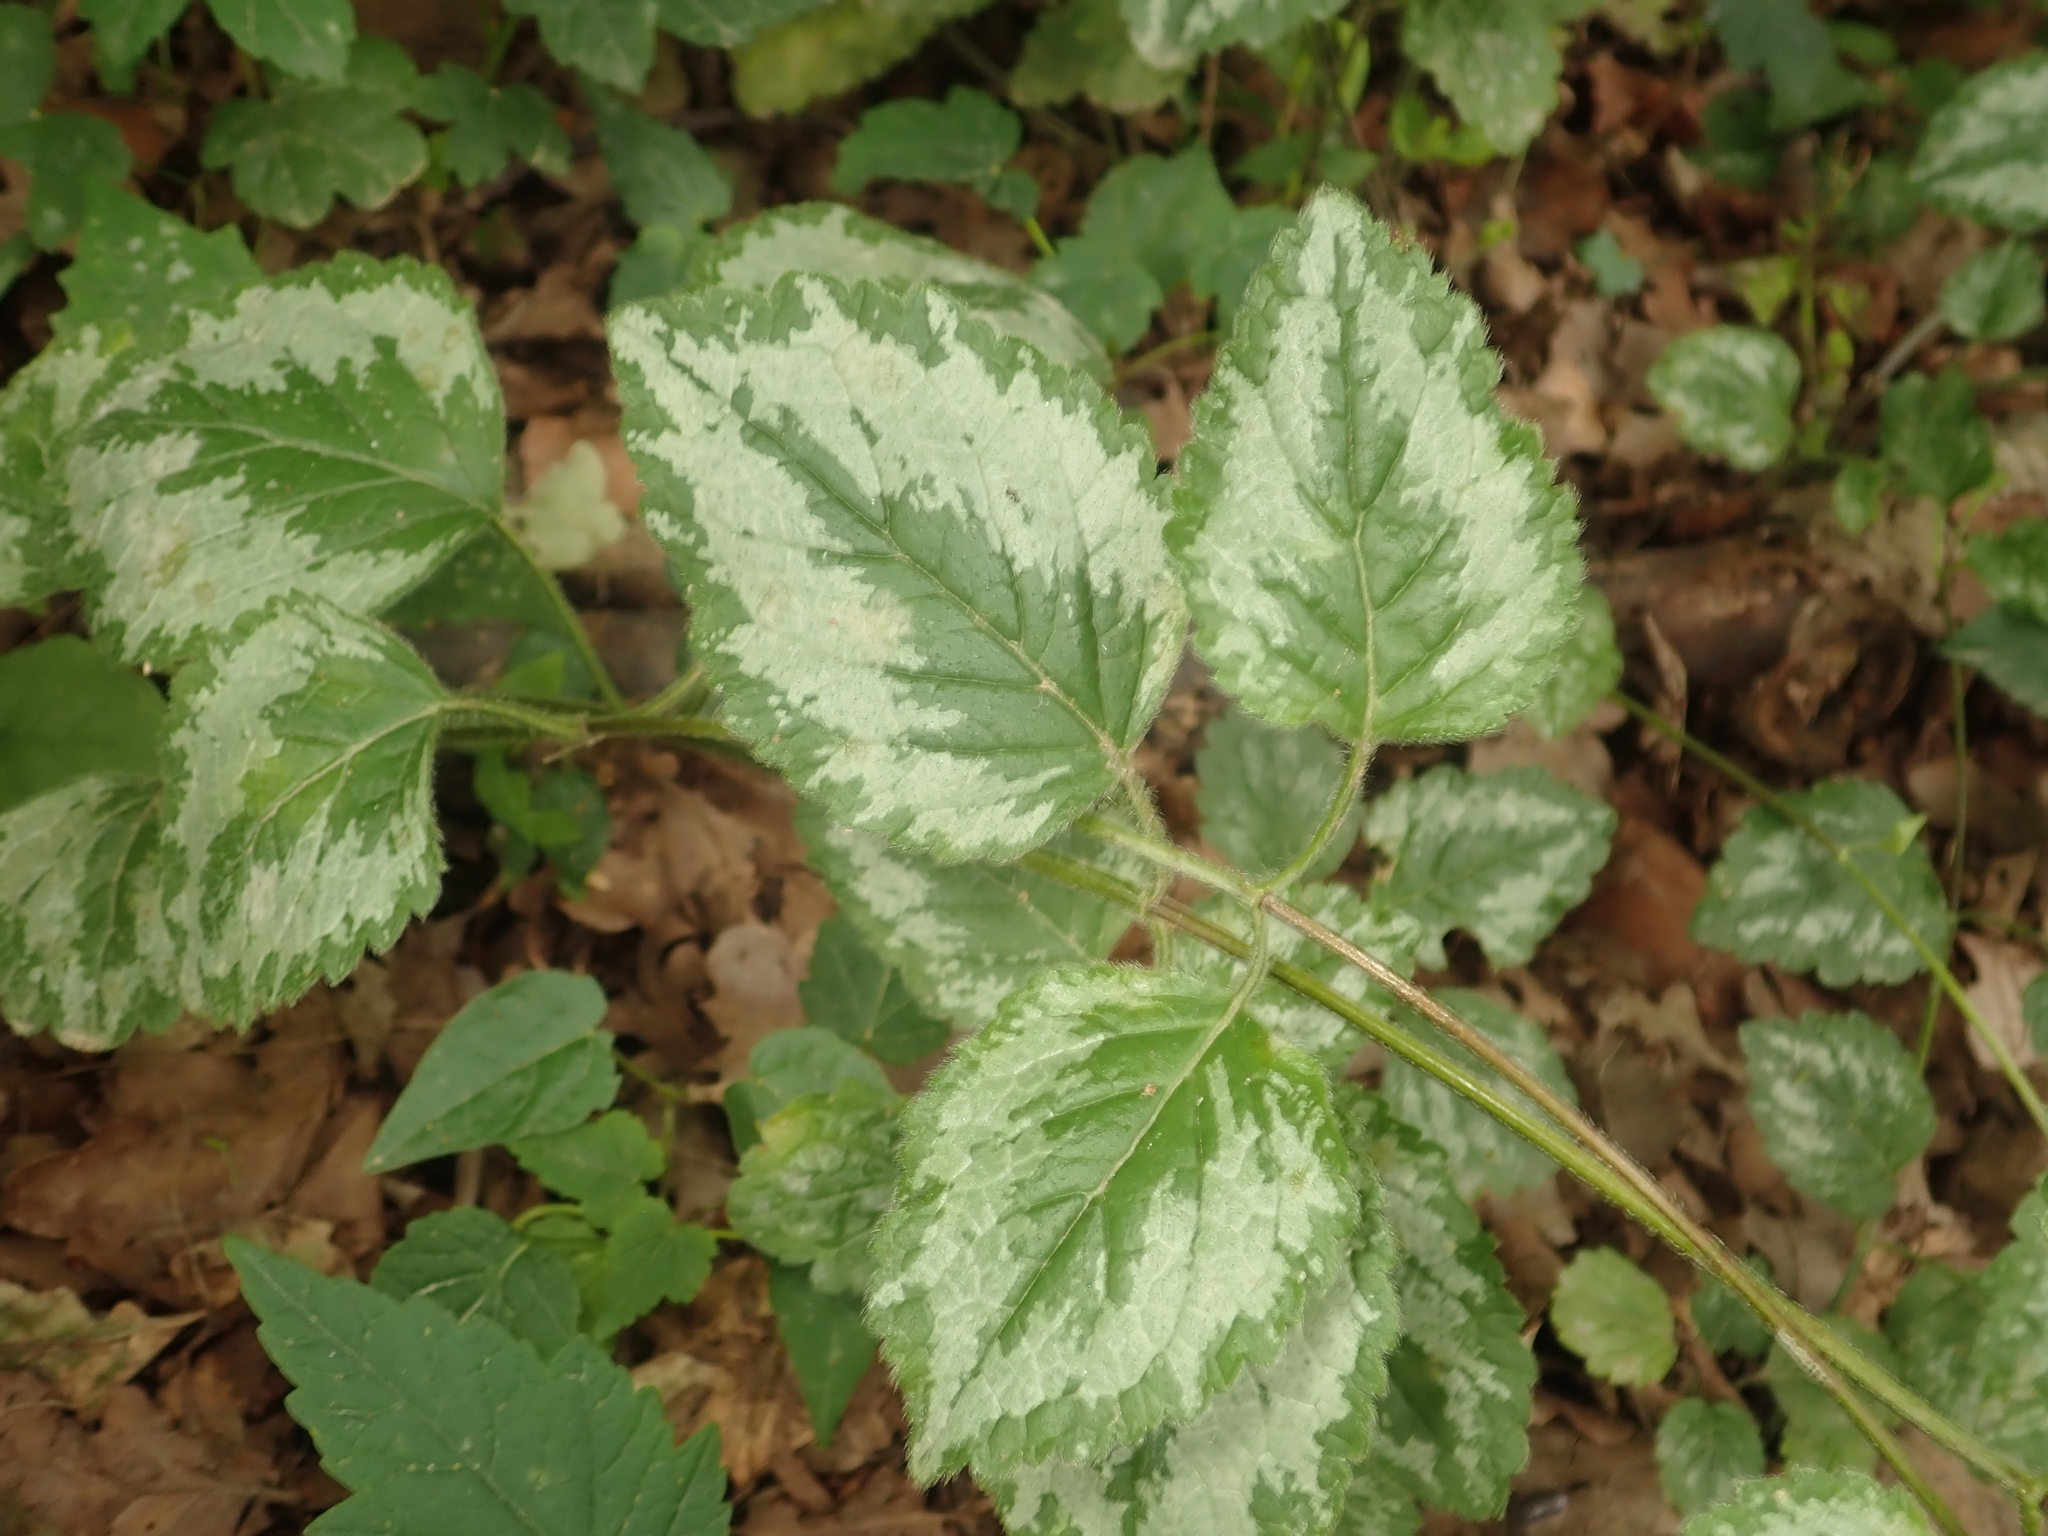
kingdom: Plantae
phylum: Tracheophyta
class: Magnoliopsida
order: Lamiales
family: Lamiaceae
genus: Lamium
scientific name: Lamium galeobdolon
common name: Yellow archangel
